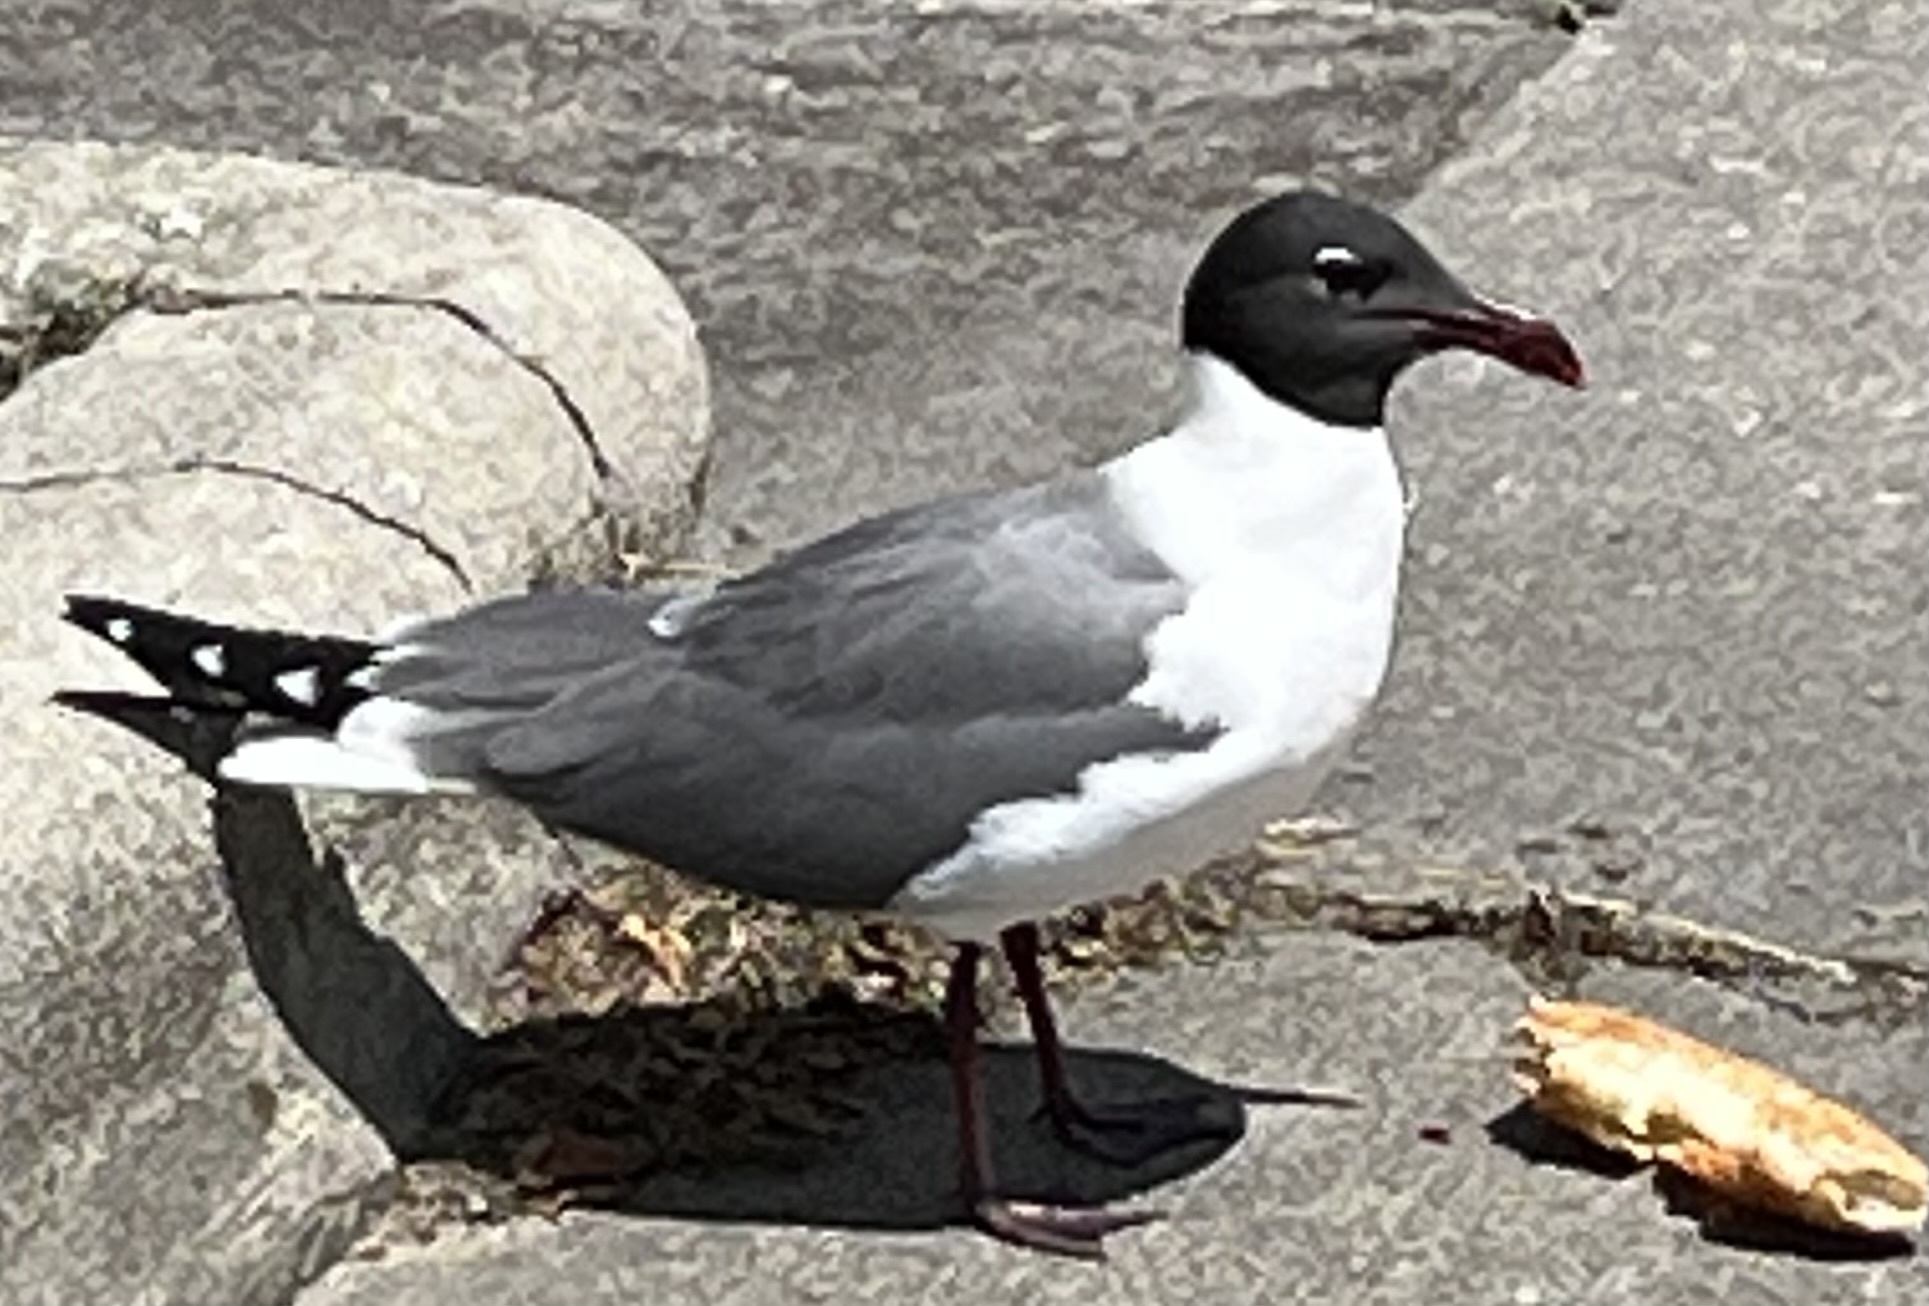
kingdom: Animalia
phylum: Chordata
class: Aves
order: Charadriiformes
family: Laridae
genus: Leucophaeus
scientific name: Leucophaeus atricilla
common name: Laughing gull
